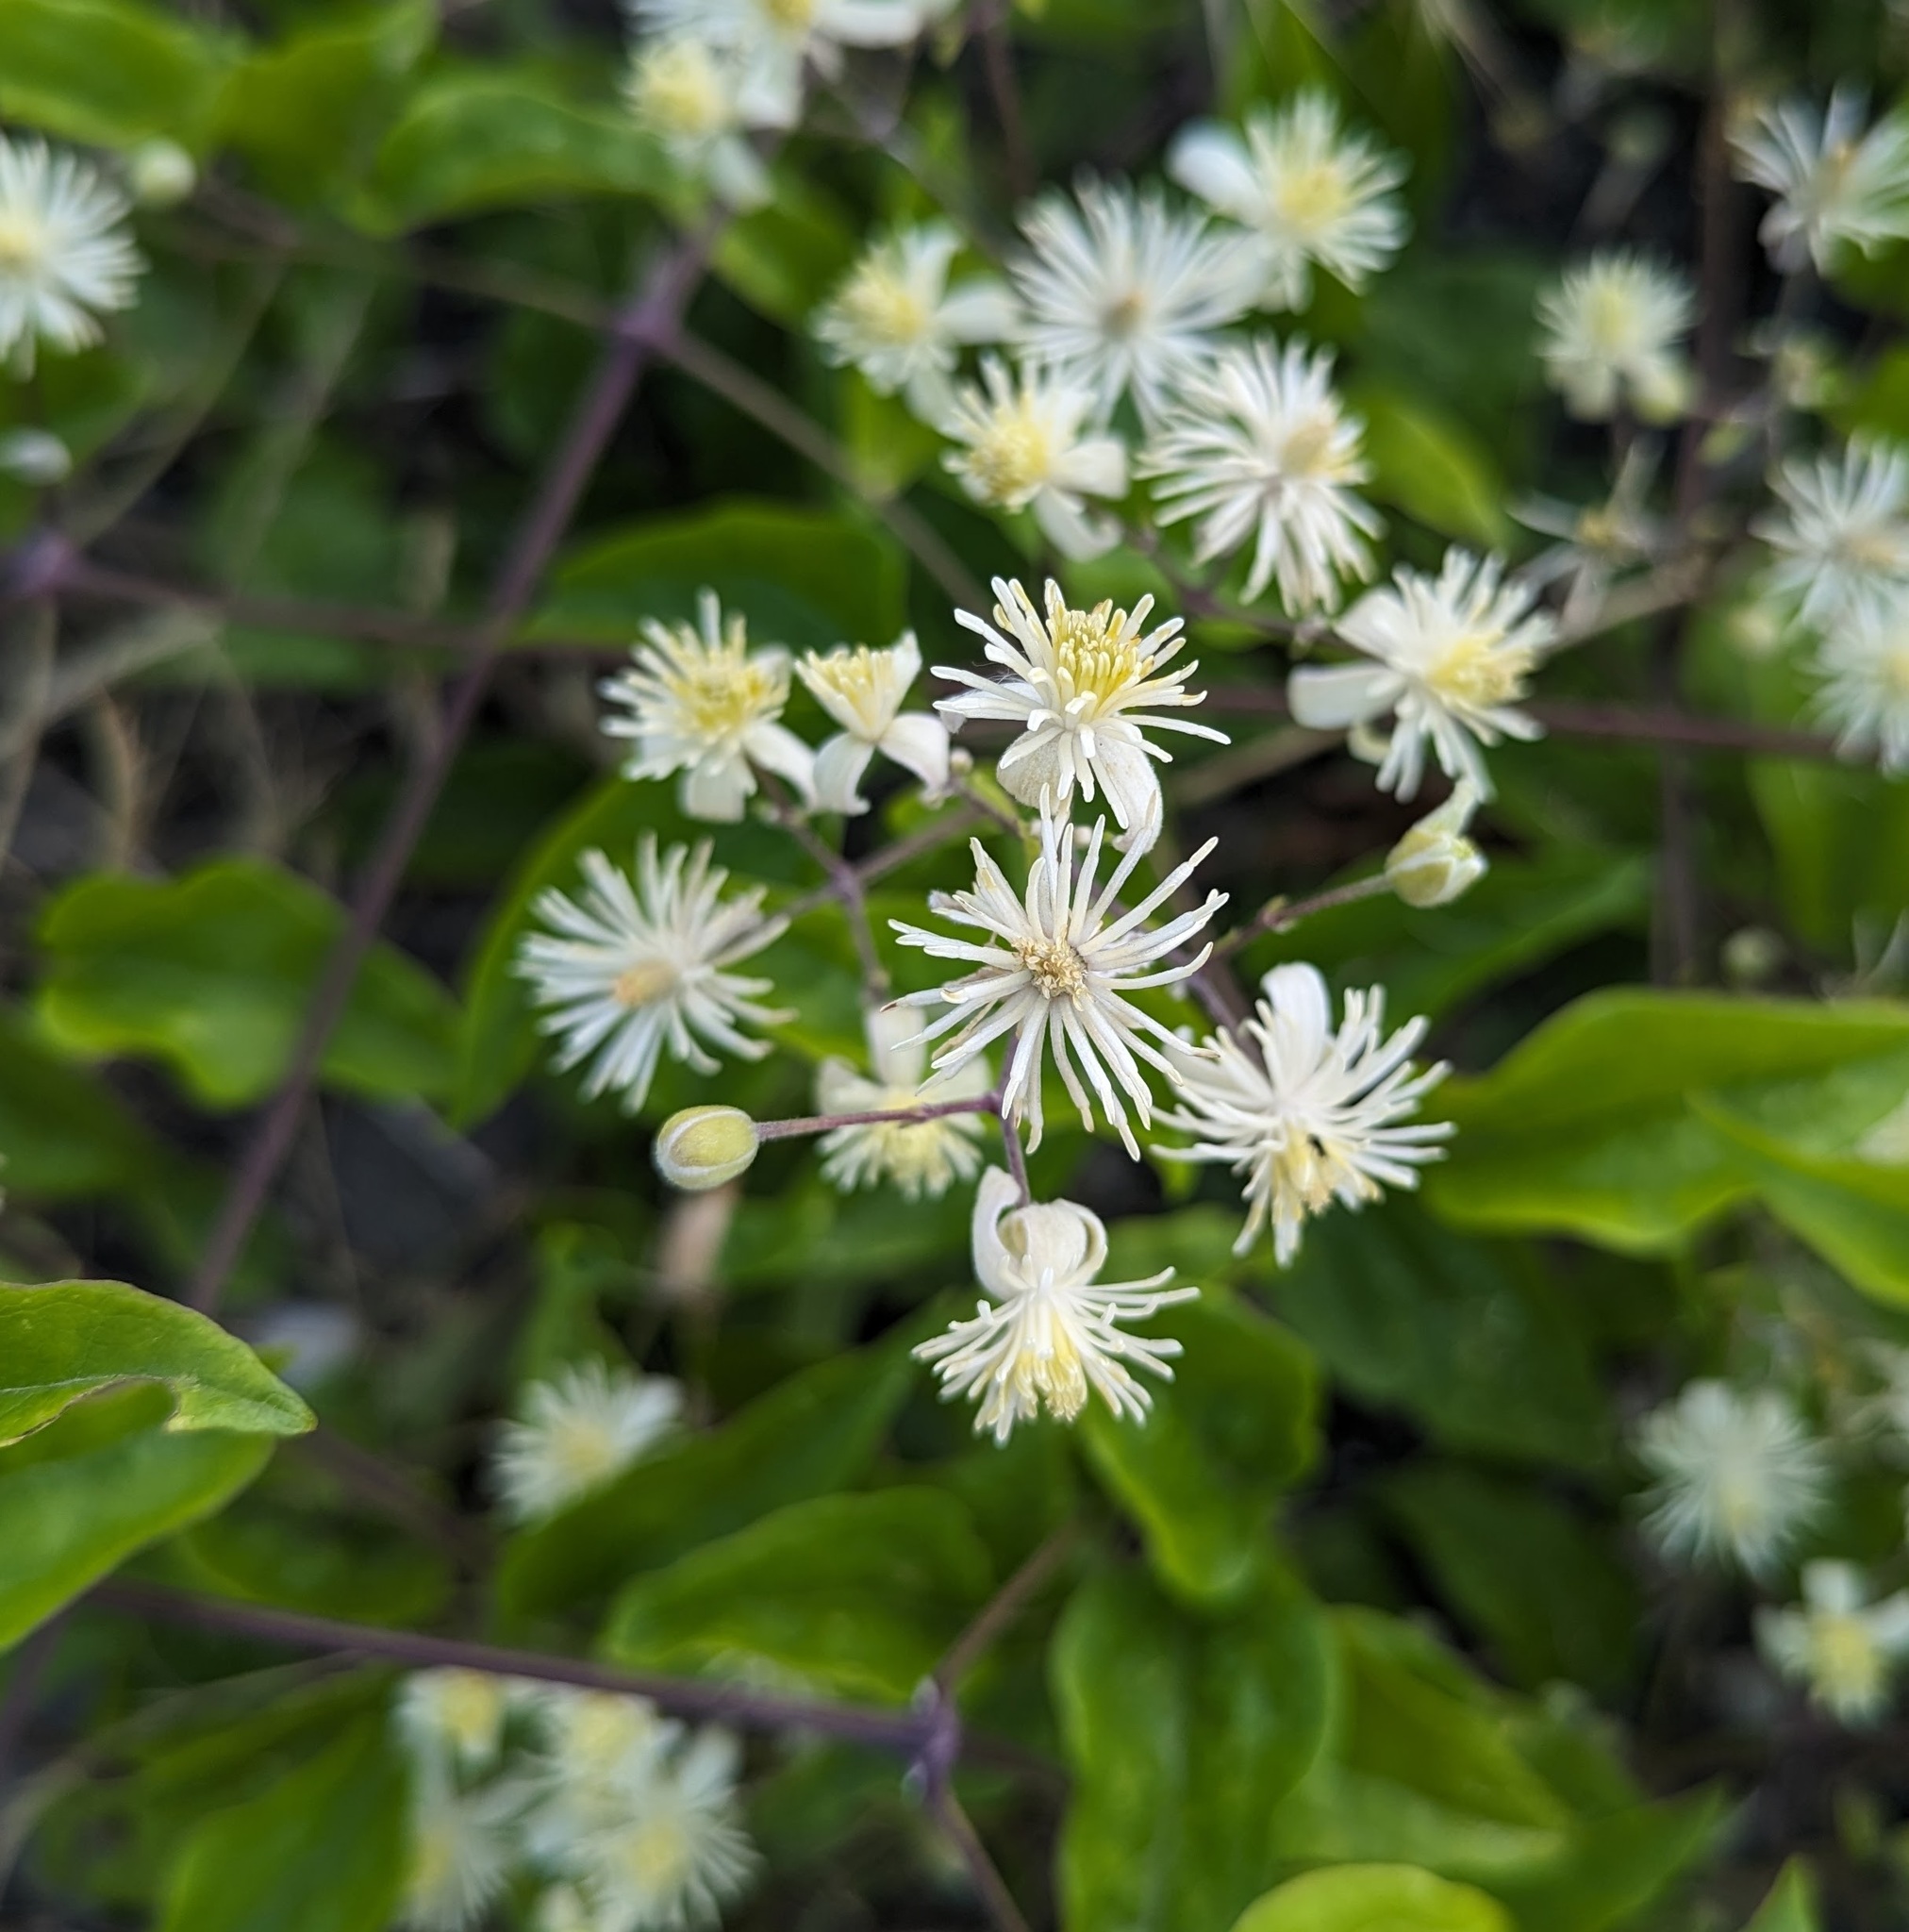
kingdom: Plantae
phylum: Tracheophyta
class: Magnoliopsida
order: Ranunculales
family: Ranunculaceae
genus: Clematis
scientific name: Clematis vitalba
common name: Evergreen clematis
